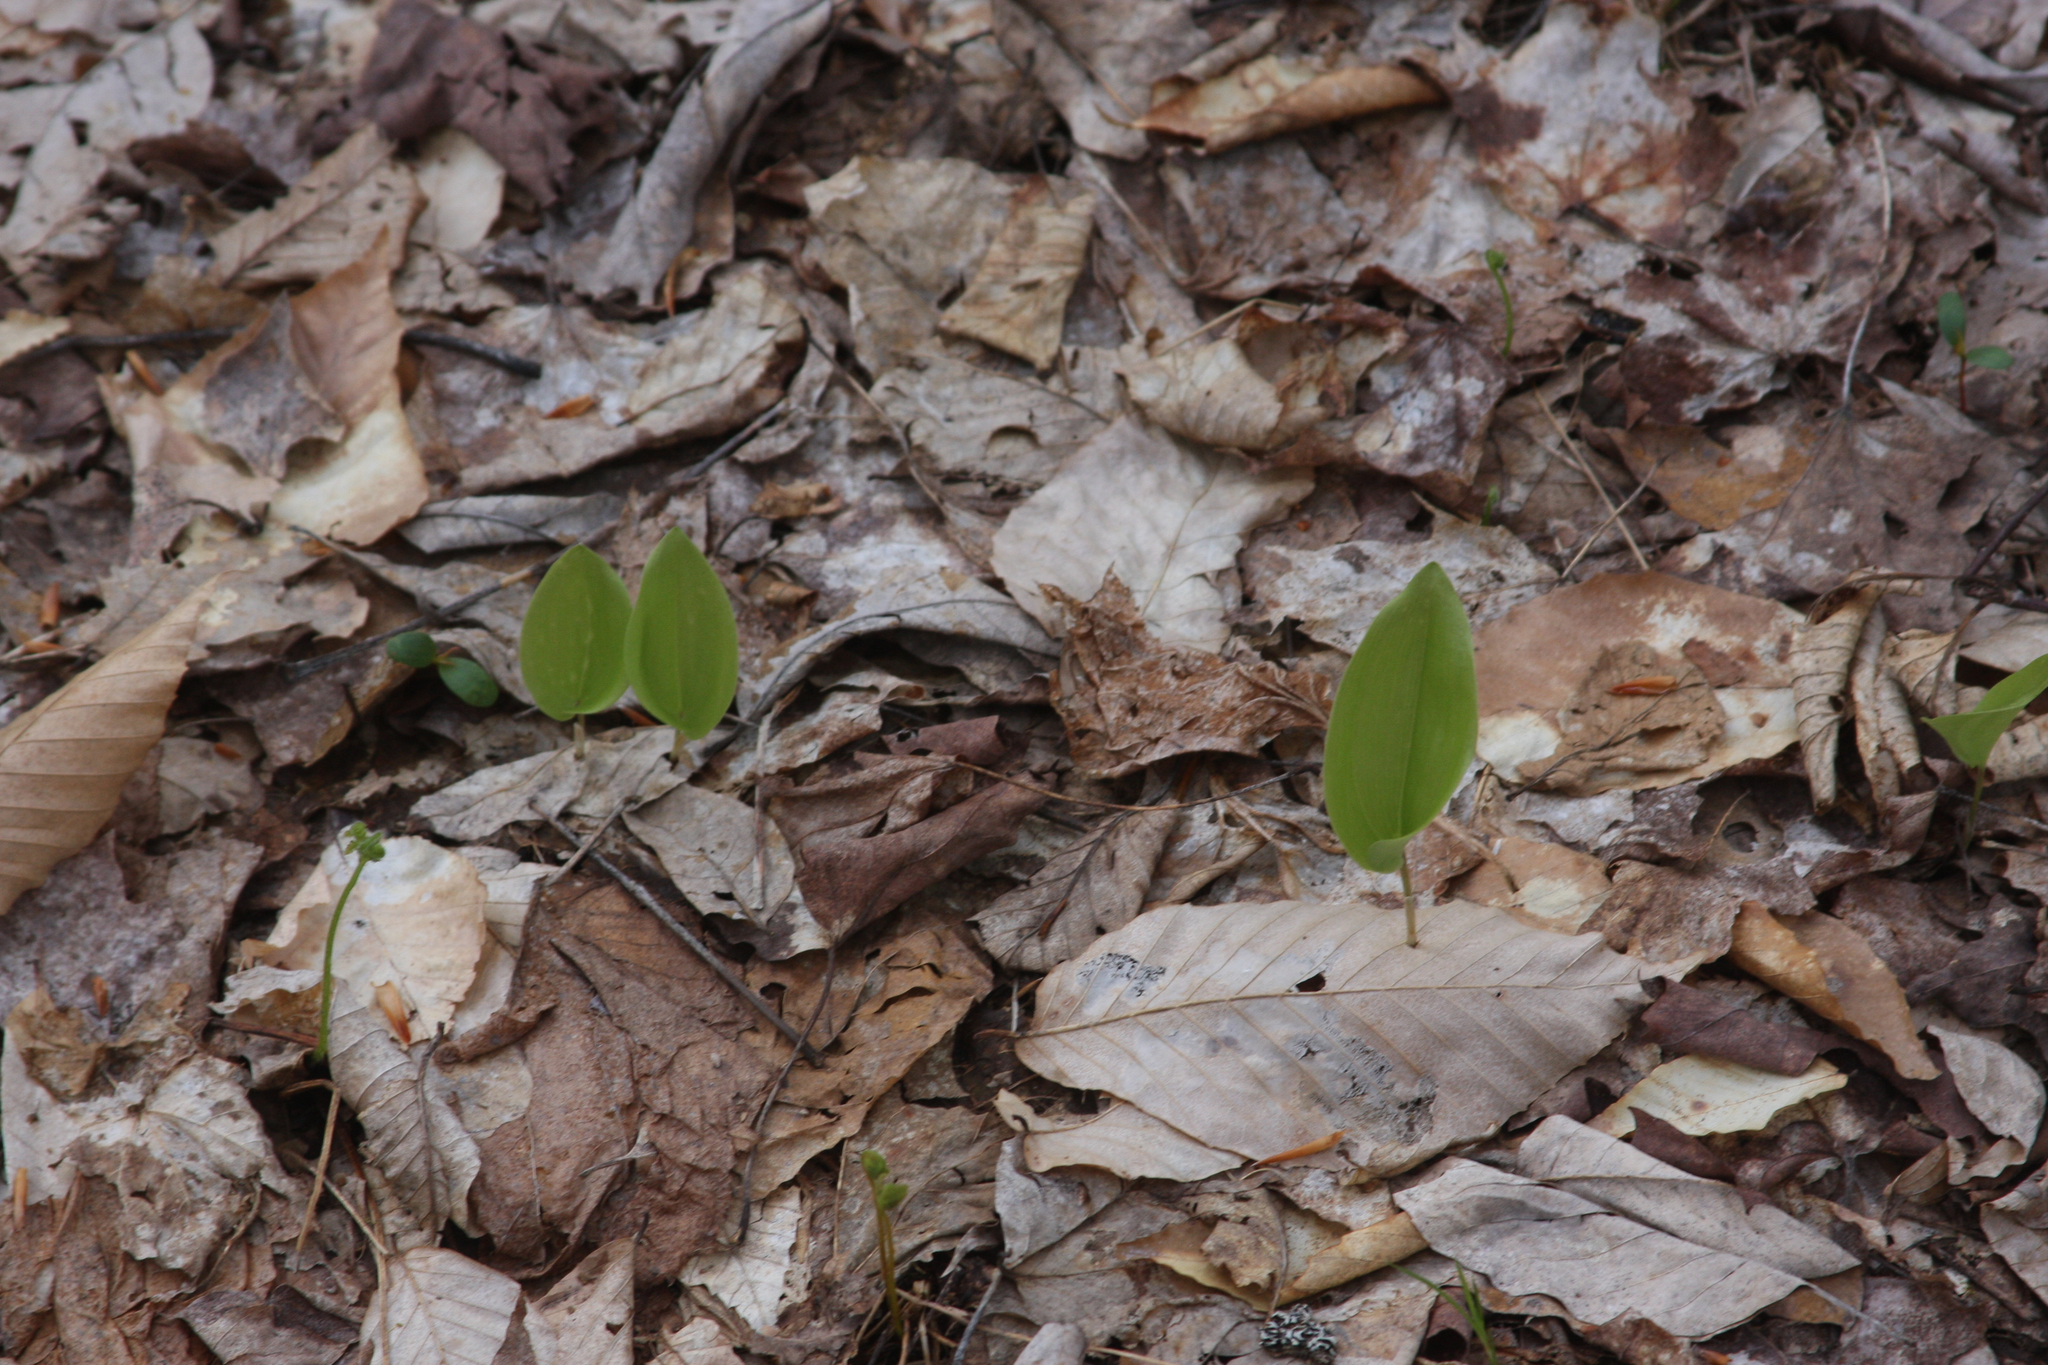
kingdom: Plantae
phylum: Tracheophyta
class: Liliopsida
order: Asparagales
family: Asparagaceae
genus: Maianthemum
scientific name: Maianthemum canadense
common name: False lily-of-the-valley
